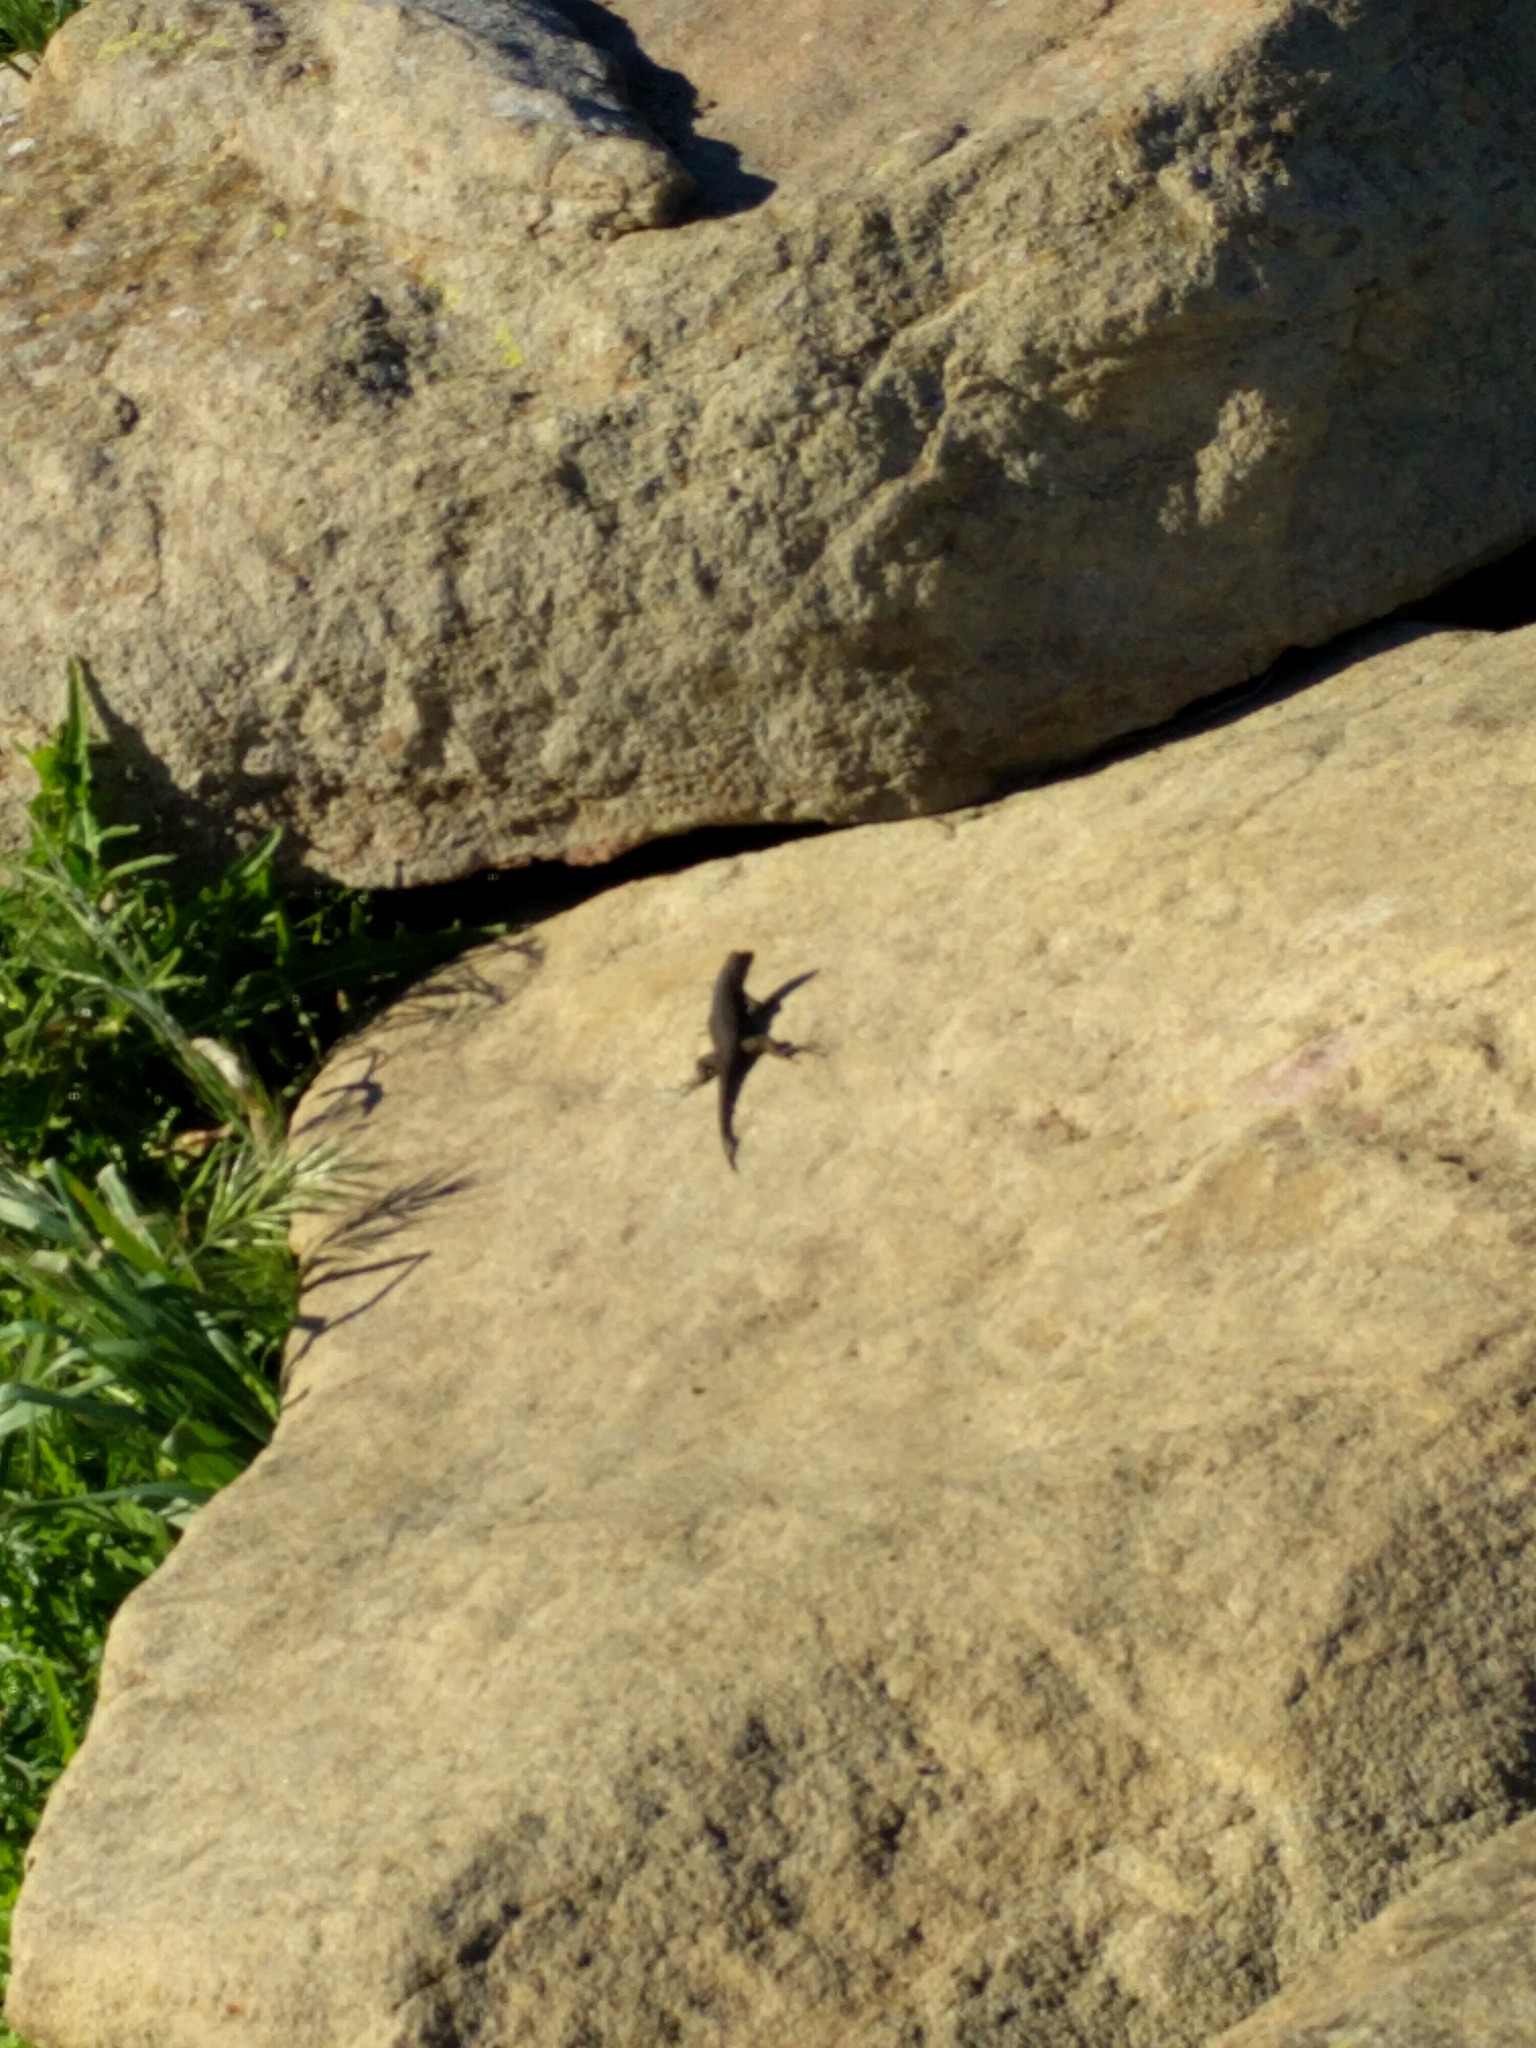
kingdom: Animalia
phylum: Chordata
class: Squamata
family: Phrynosomatidae
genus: Sceloporus
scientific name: Sceloporus occidentalis
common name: Western fence lizard
